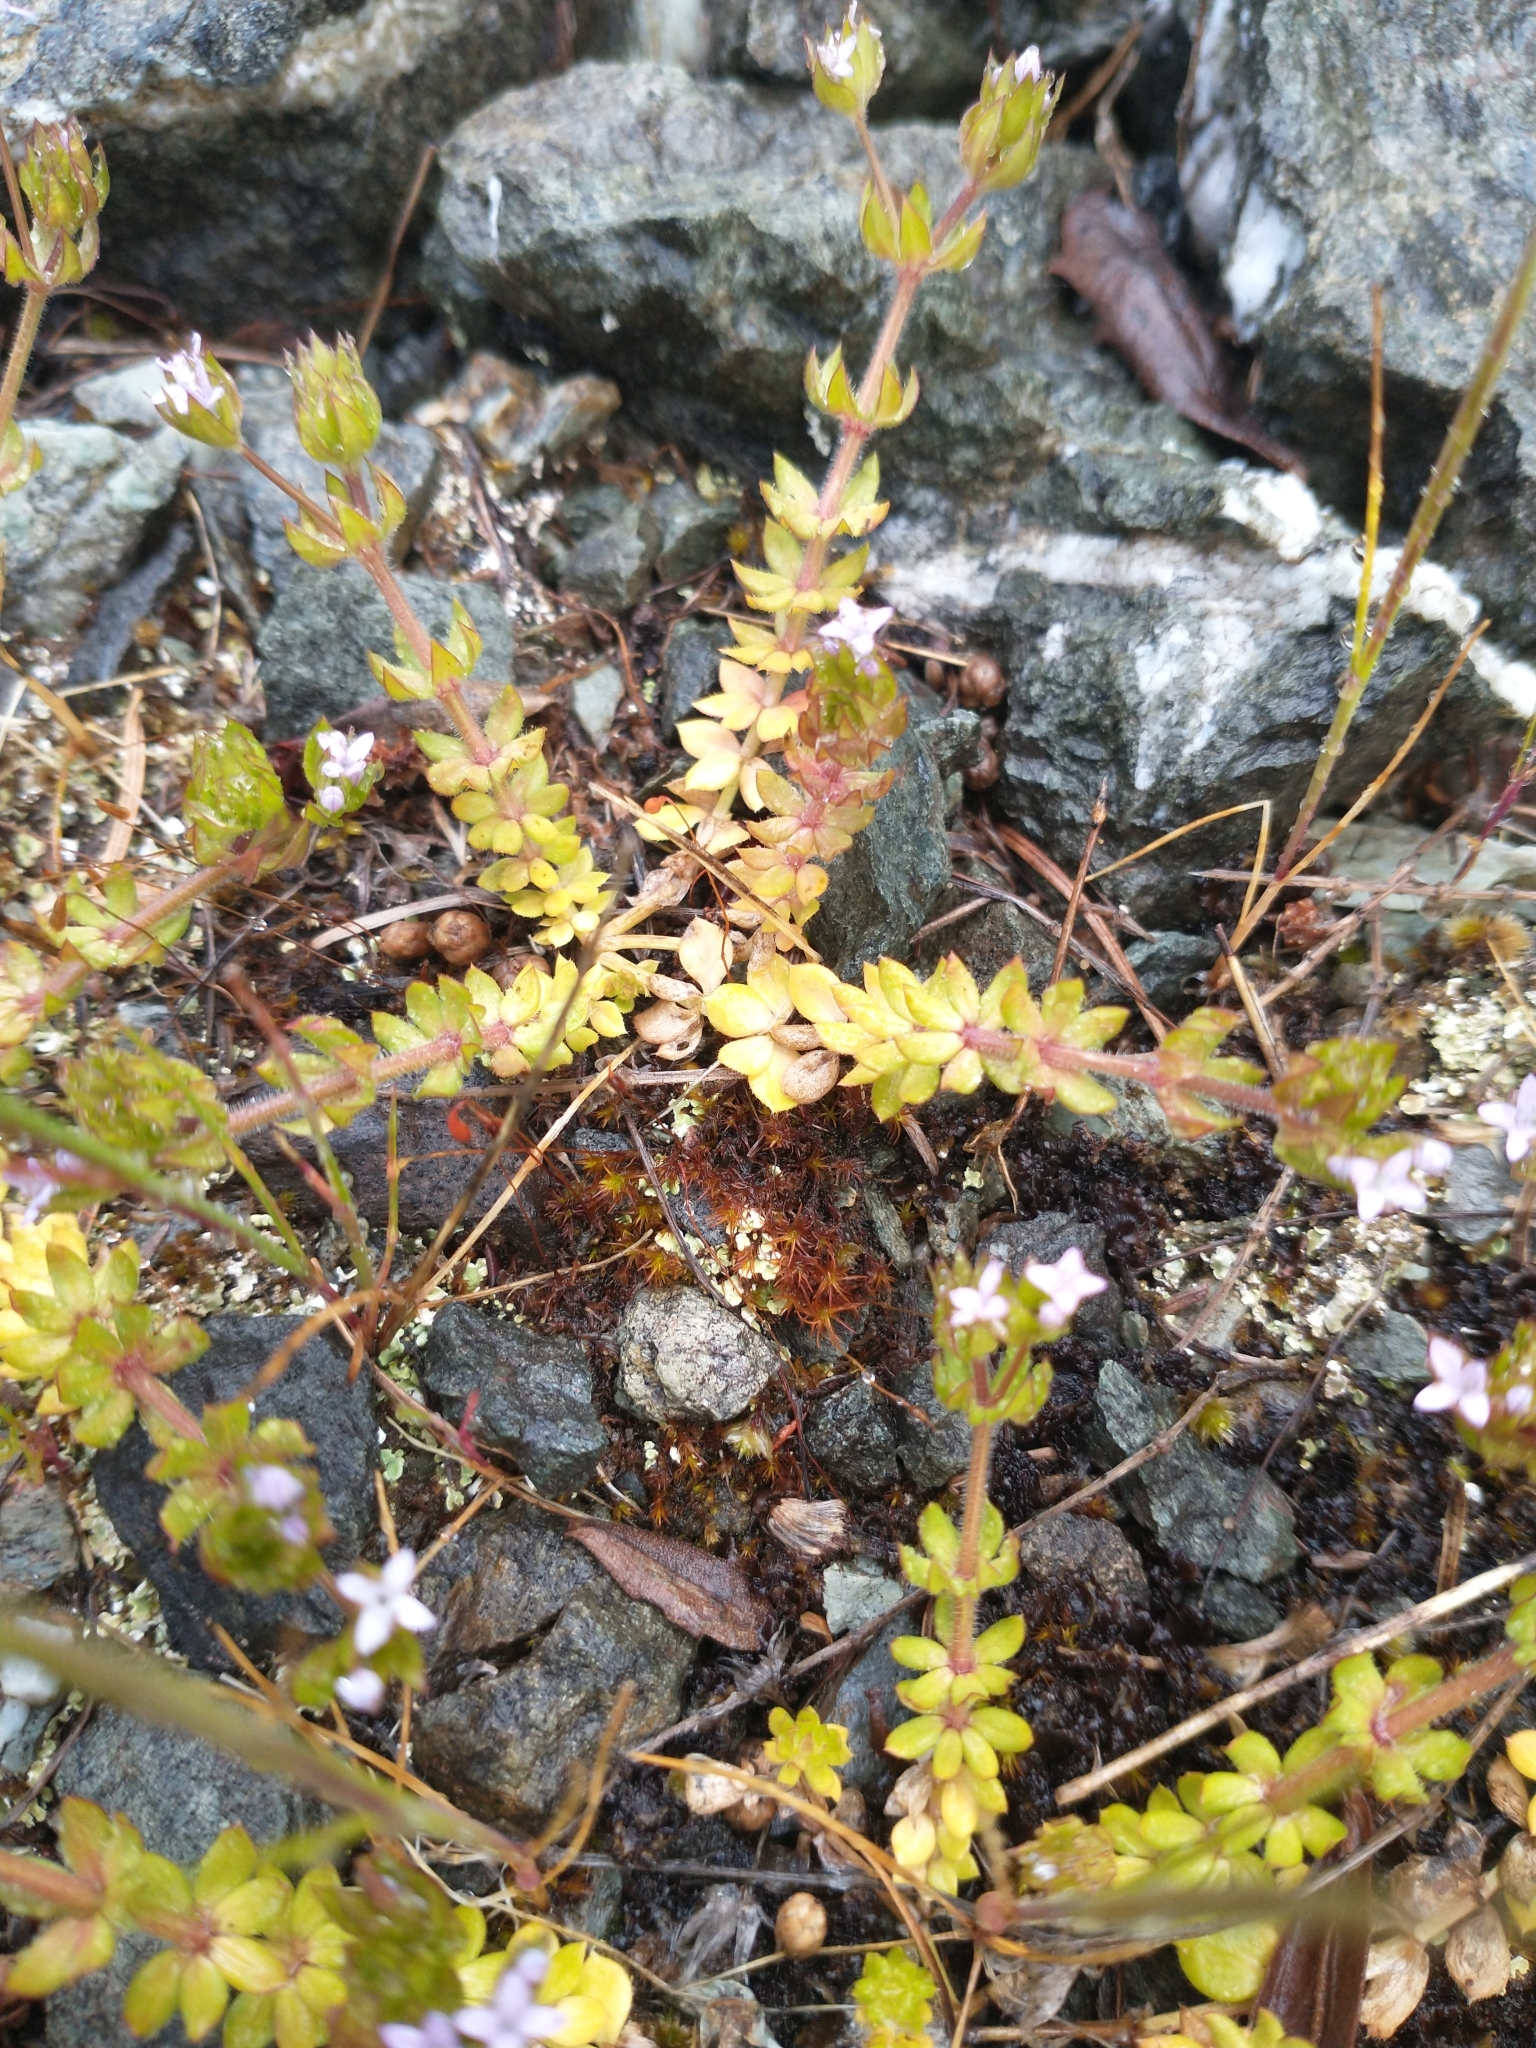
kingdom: Plantae
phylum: Tracheophyta
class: Magnoliopsida
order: Gentianales
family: Rubiaceae
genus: Sherardia
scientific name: Sherardia arvensis
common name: Field madder
